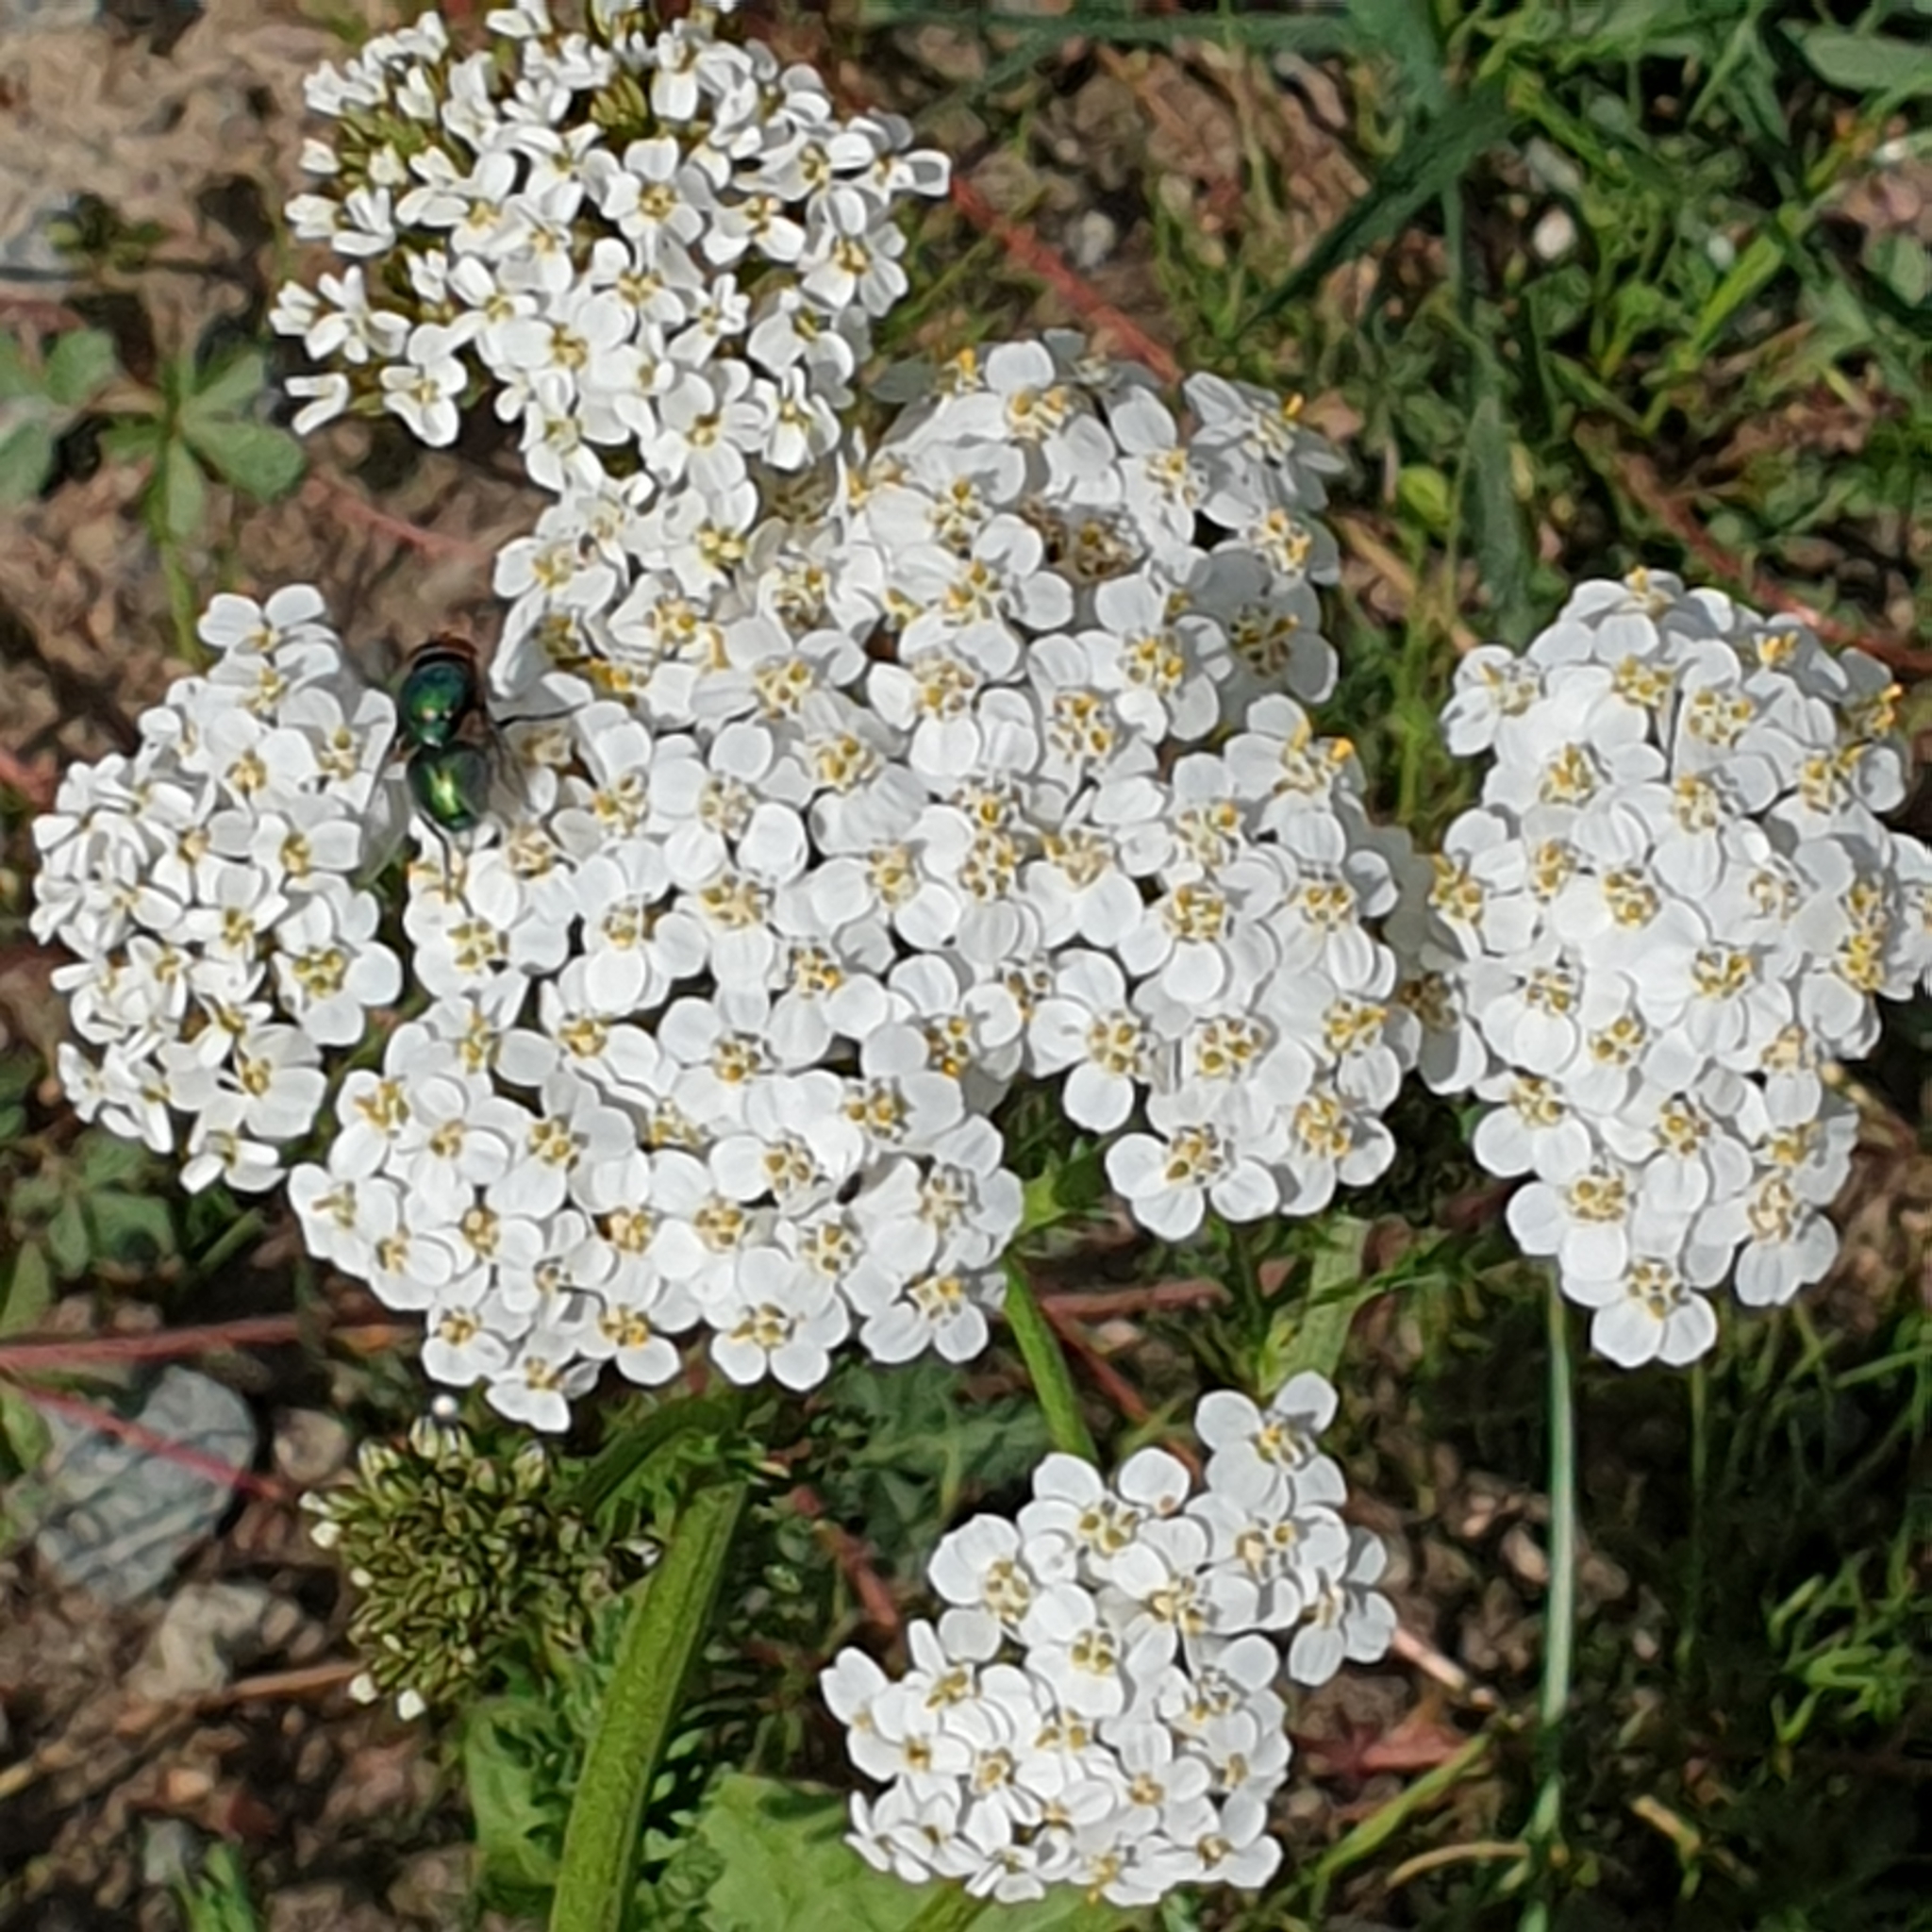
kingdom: Plantae
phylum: Tracheophyta
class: Magnoliopsida
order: Asterales
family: Asteraceae
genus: Achillea
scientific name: Achillea millefolium
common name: Yarrow
